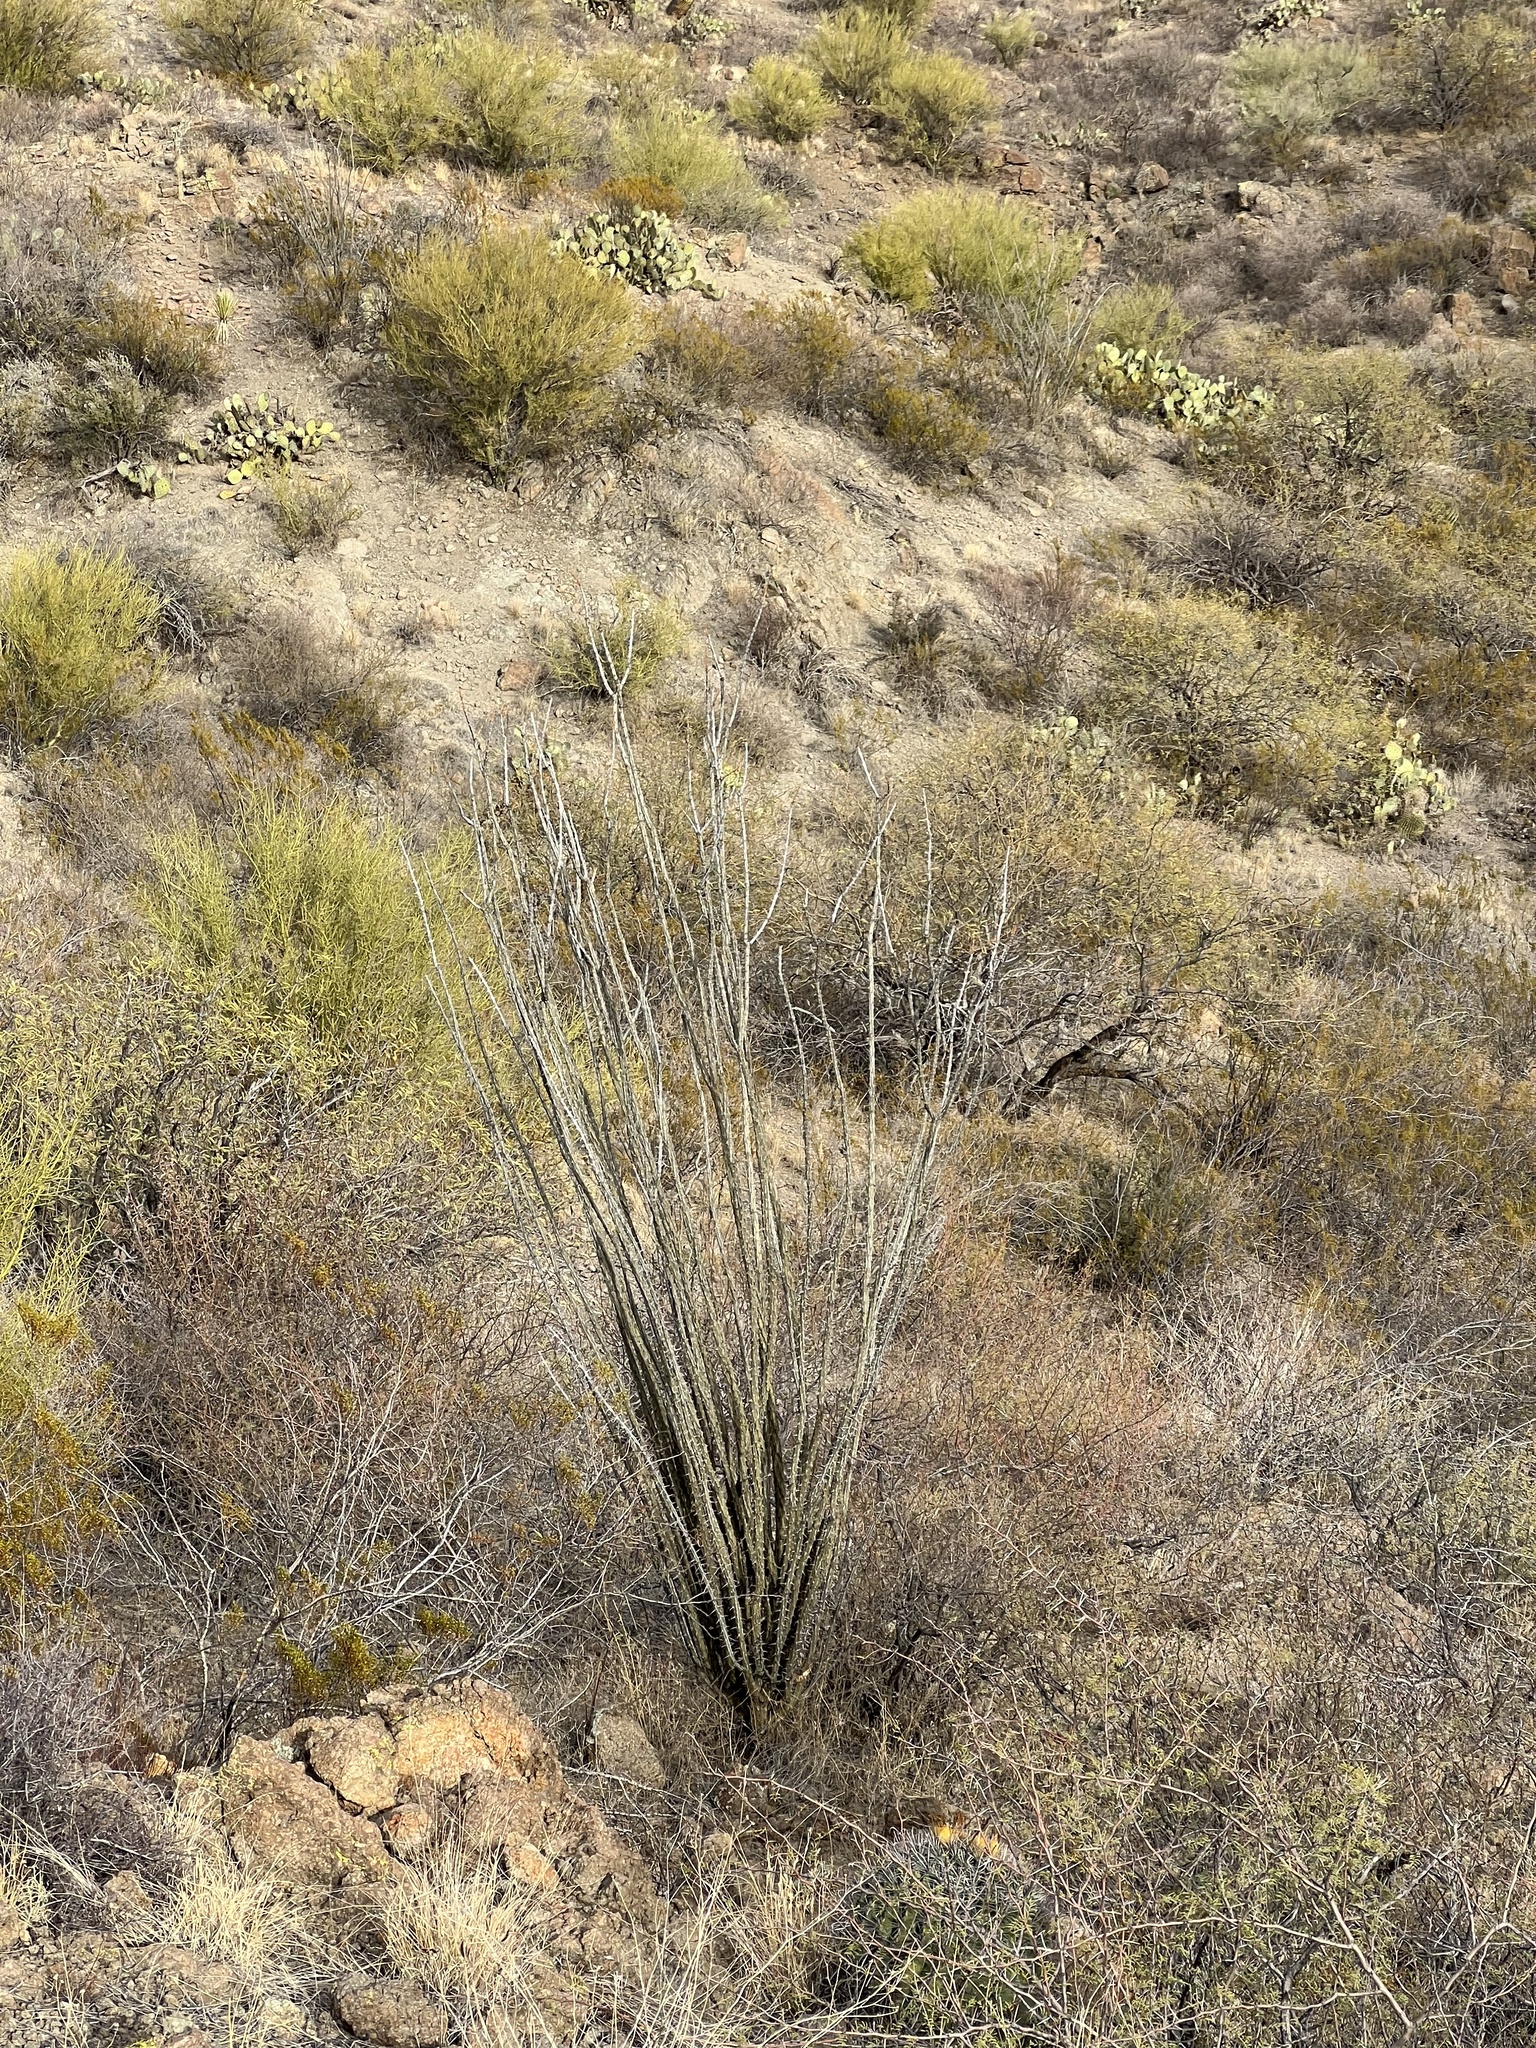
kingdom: Plantae
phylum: Tracheophyta
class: Magnoliopsida
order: Ericales
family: Fouquieriaceae
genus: Fouquieria
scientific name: Fouquieria splendens
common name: Vine-cactus
